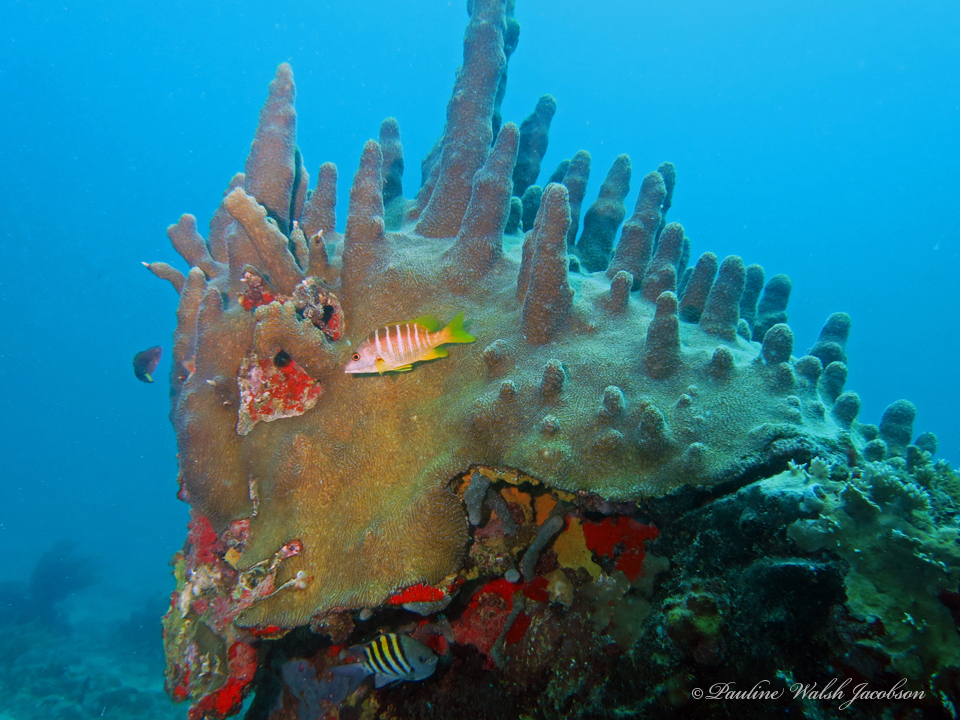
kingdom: Animalia
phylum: Cnidaria
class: Anthozoa
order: Scleractinia
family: Meandrinidae
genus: Dendrogyra
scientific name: Dendrogyra cylindrus
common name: Pillar coral
